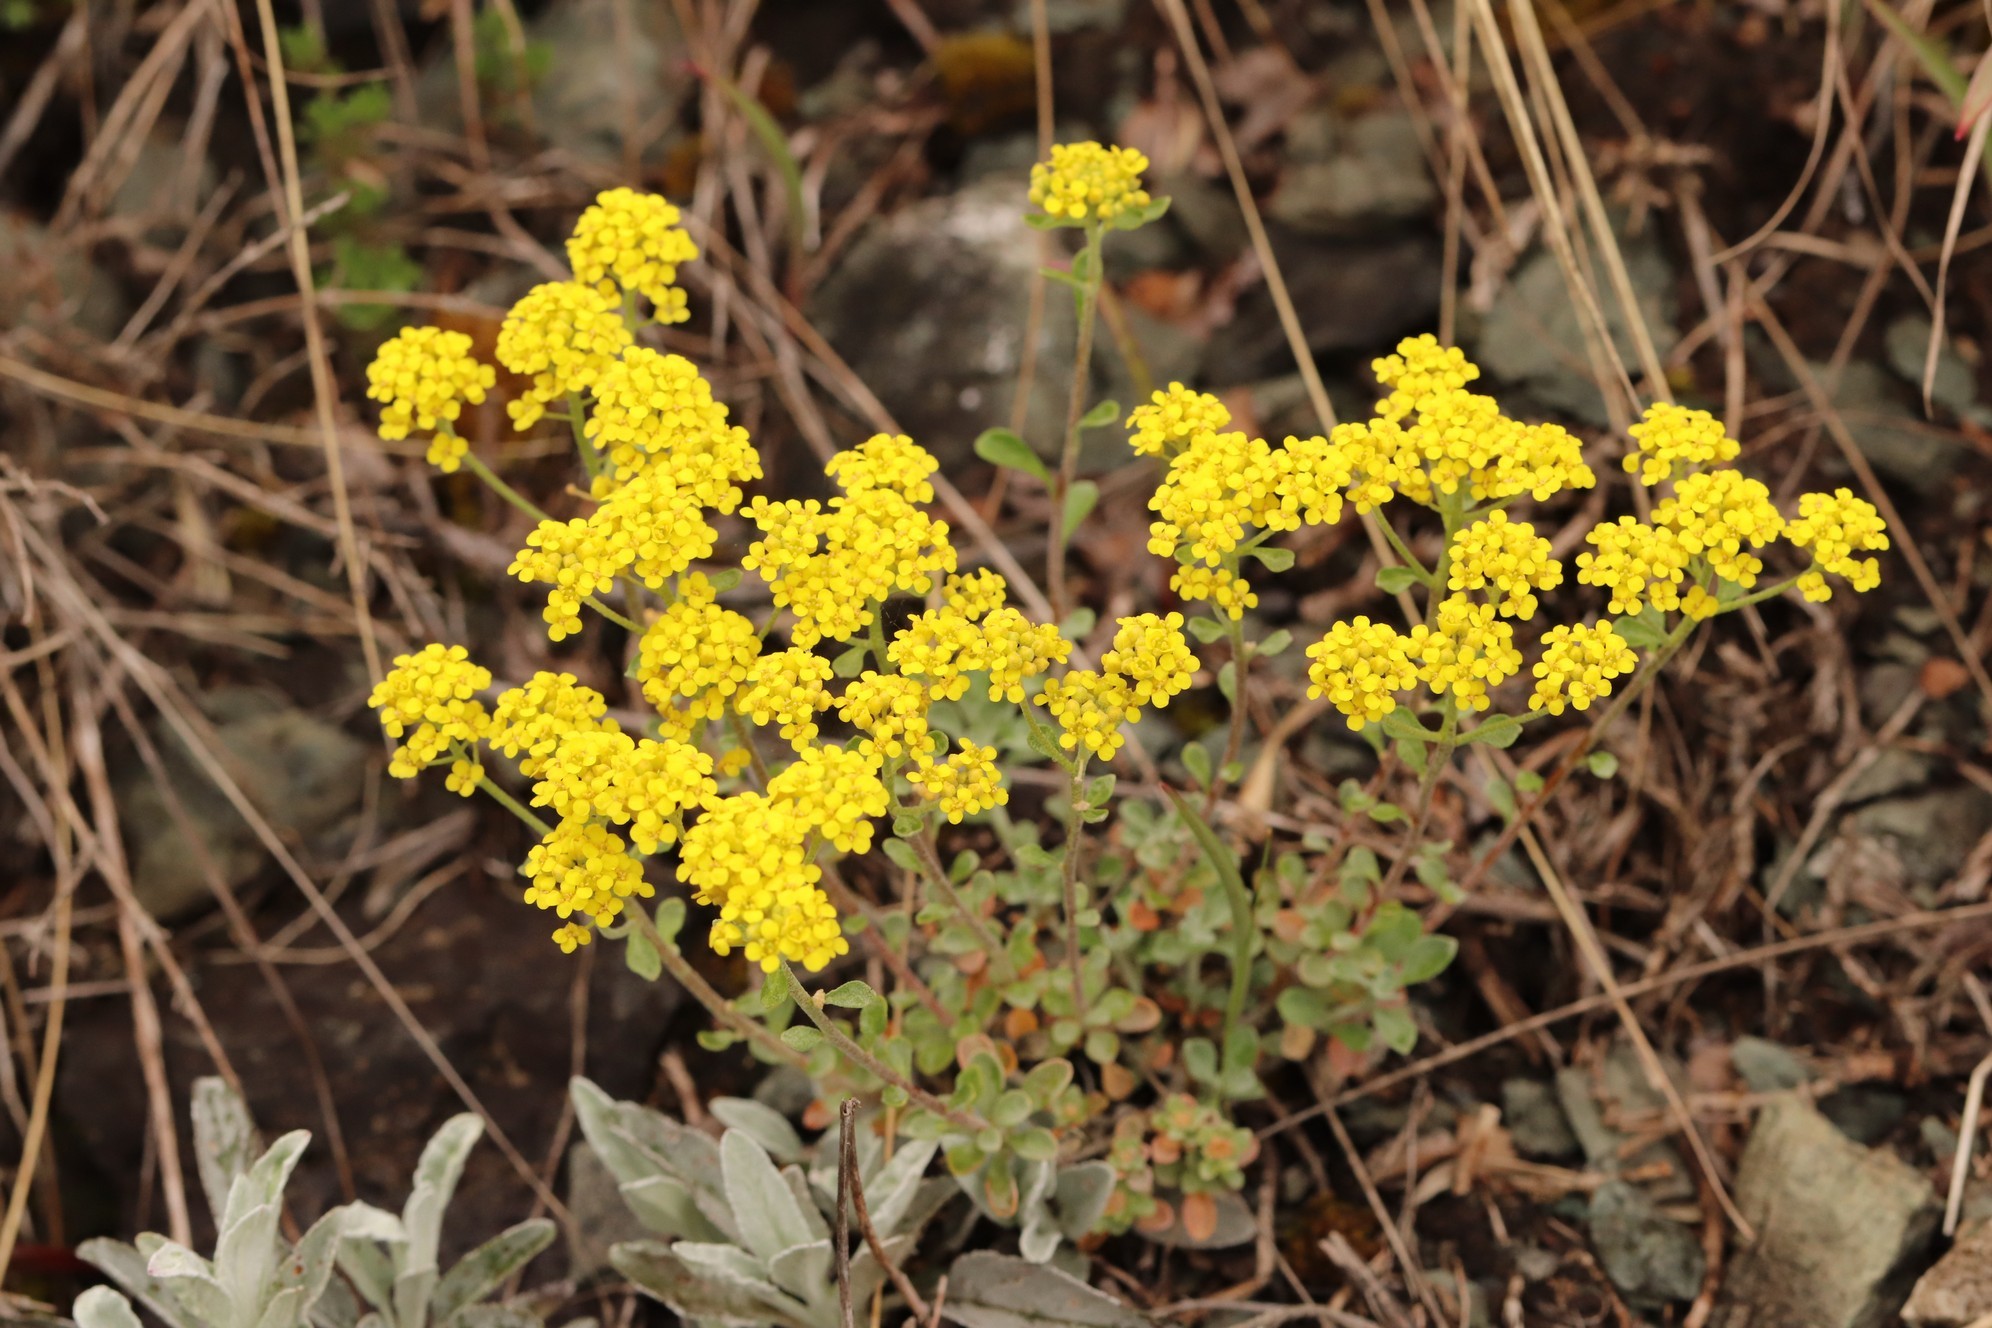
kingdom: Plantae
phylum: Tracheophyta
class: Magnoliopsida
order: Brassicales
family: Brassicaceae
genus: Odontarrhena
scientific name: Odontarrhena obovata
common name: American alyssum
